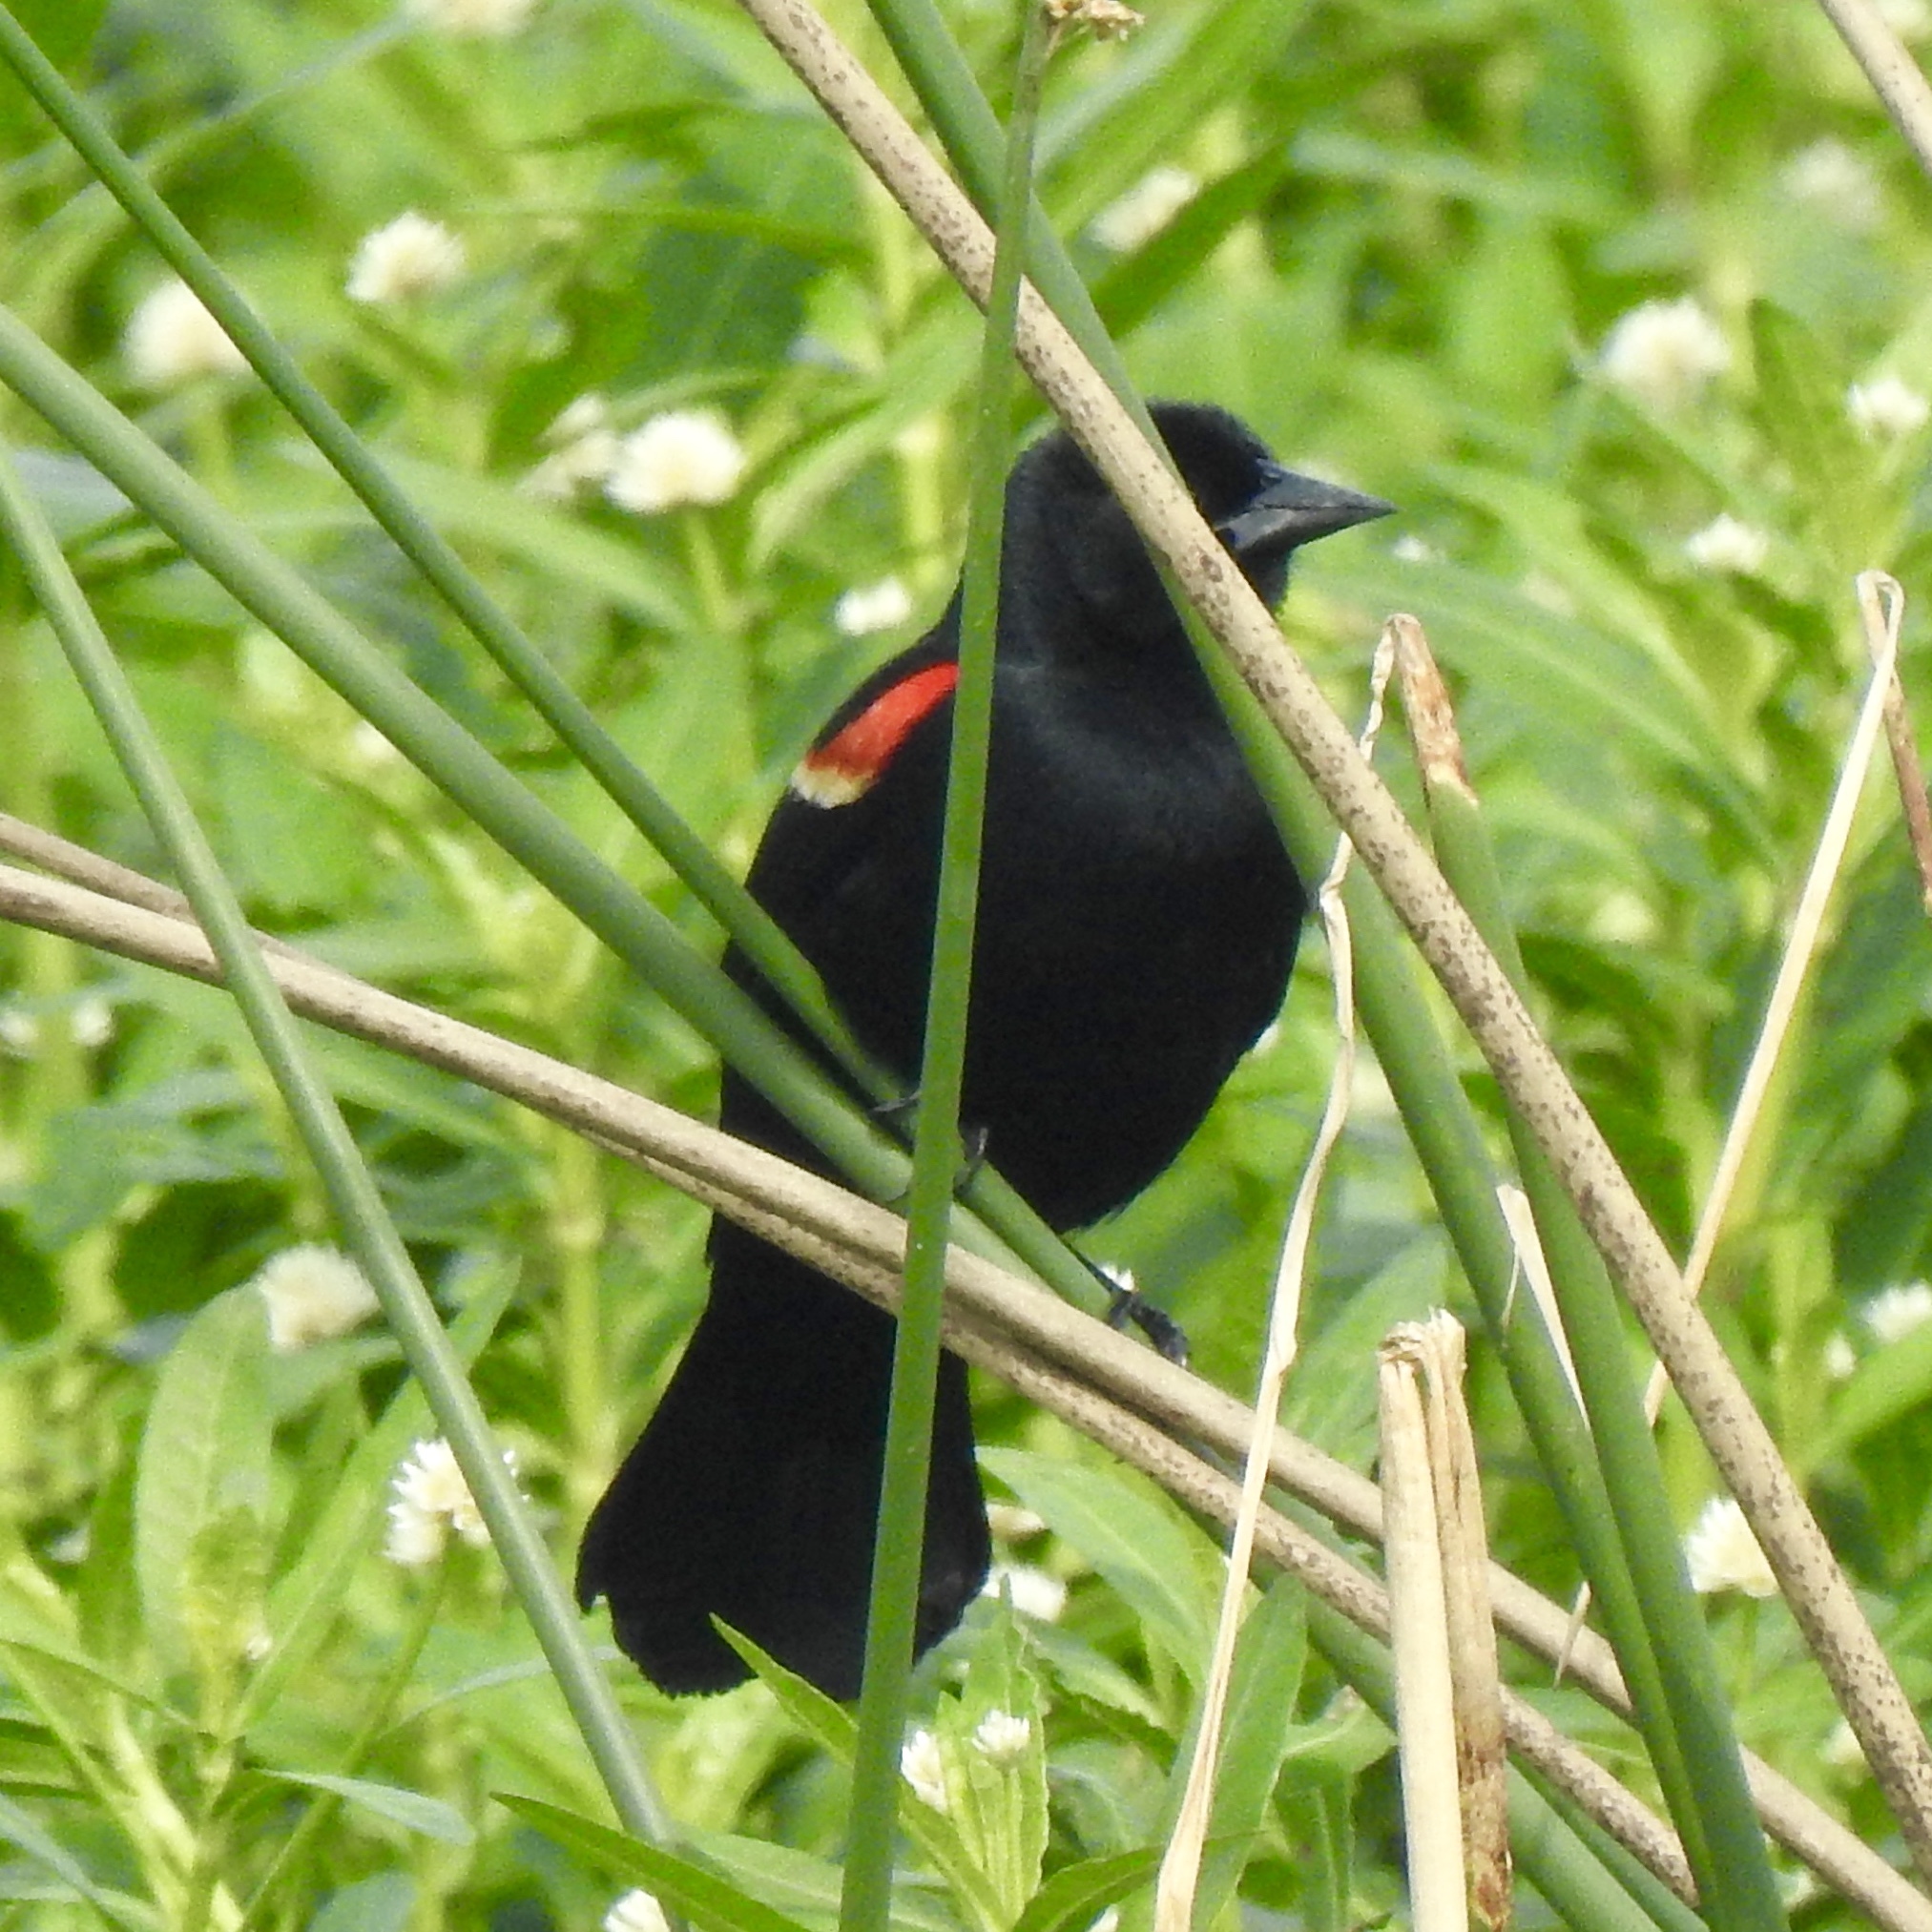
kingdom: Animalia
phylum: Chordata
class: Aves
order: Passeriformes
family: Icteridae
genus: Agelaius
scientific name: Agelaius phoeniceus
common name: Red-winged blackbird
